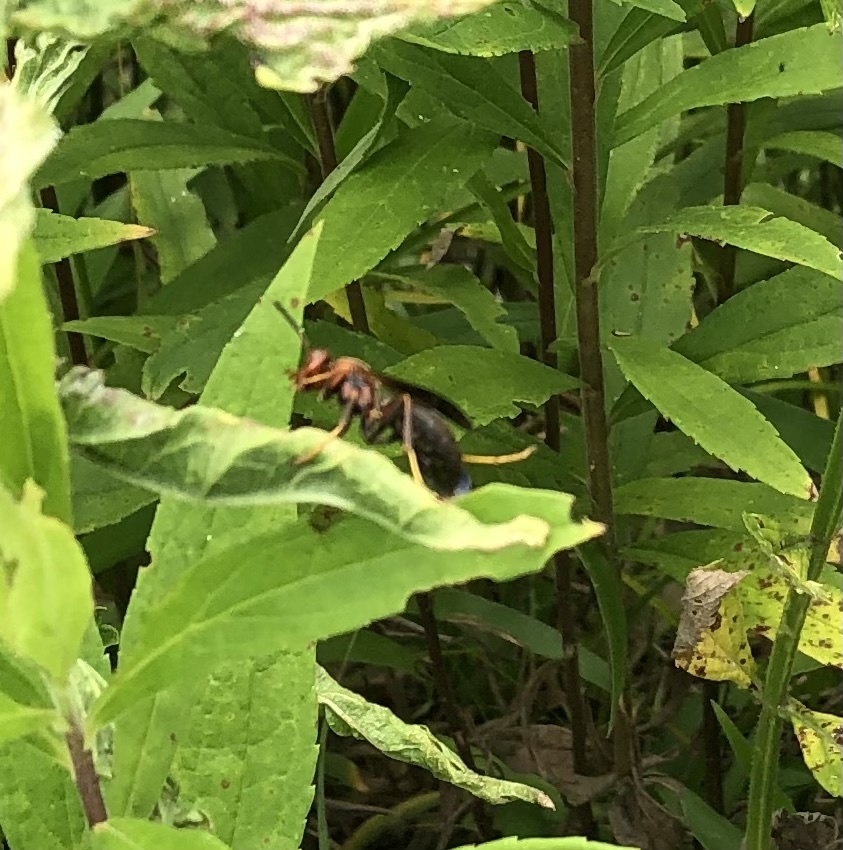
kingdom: Animalia
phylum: Arthropoda
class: Insecta
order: Hymenoptera
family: Eumenidae
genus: Polistes
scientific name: Polistes metricus
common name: Metric paper wasp
